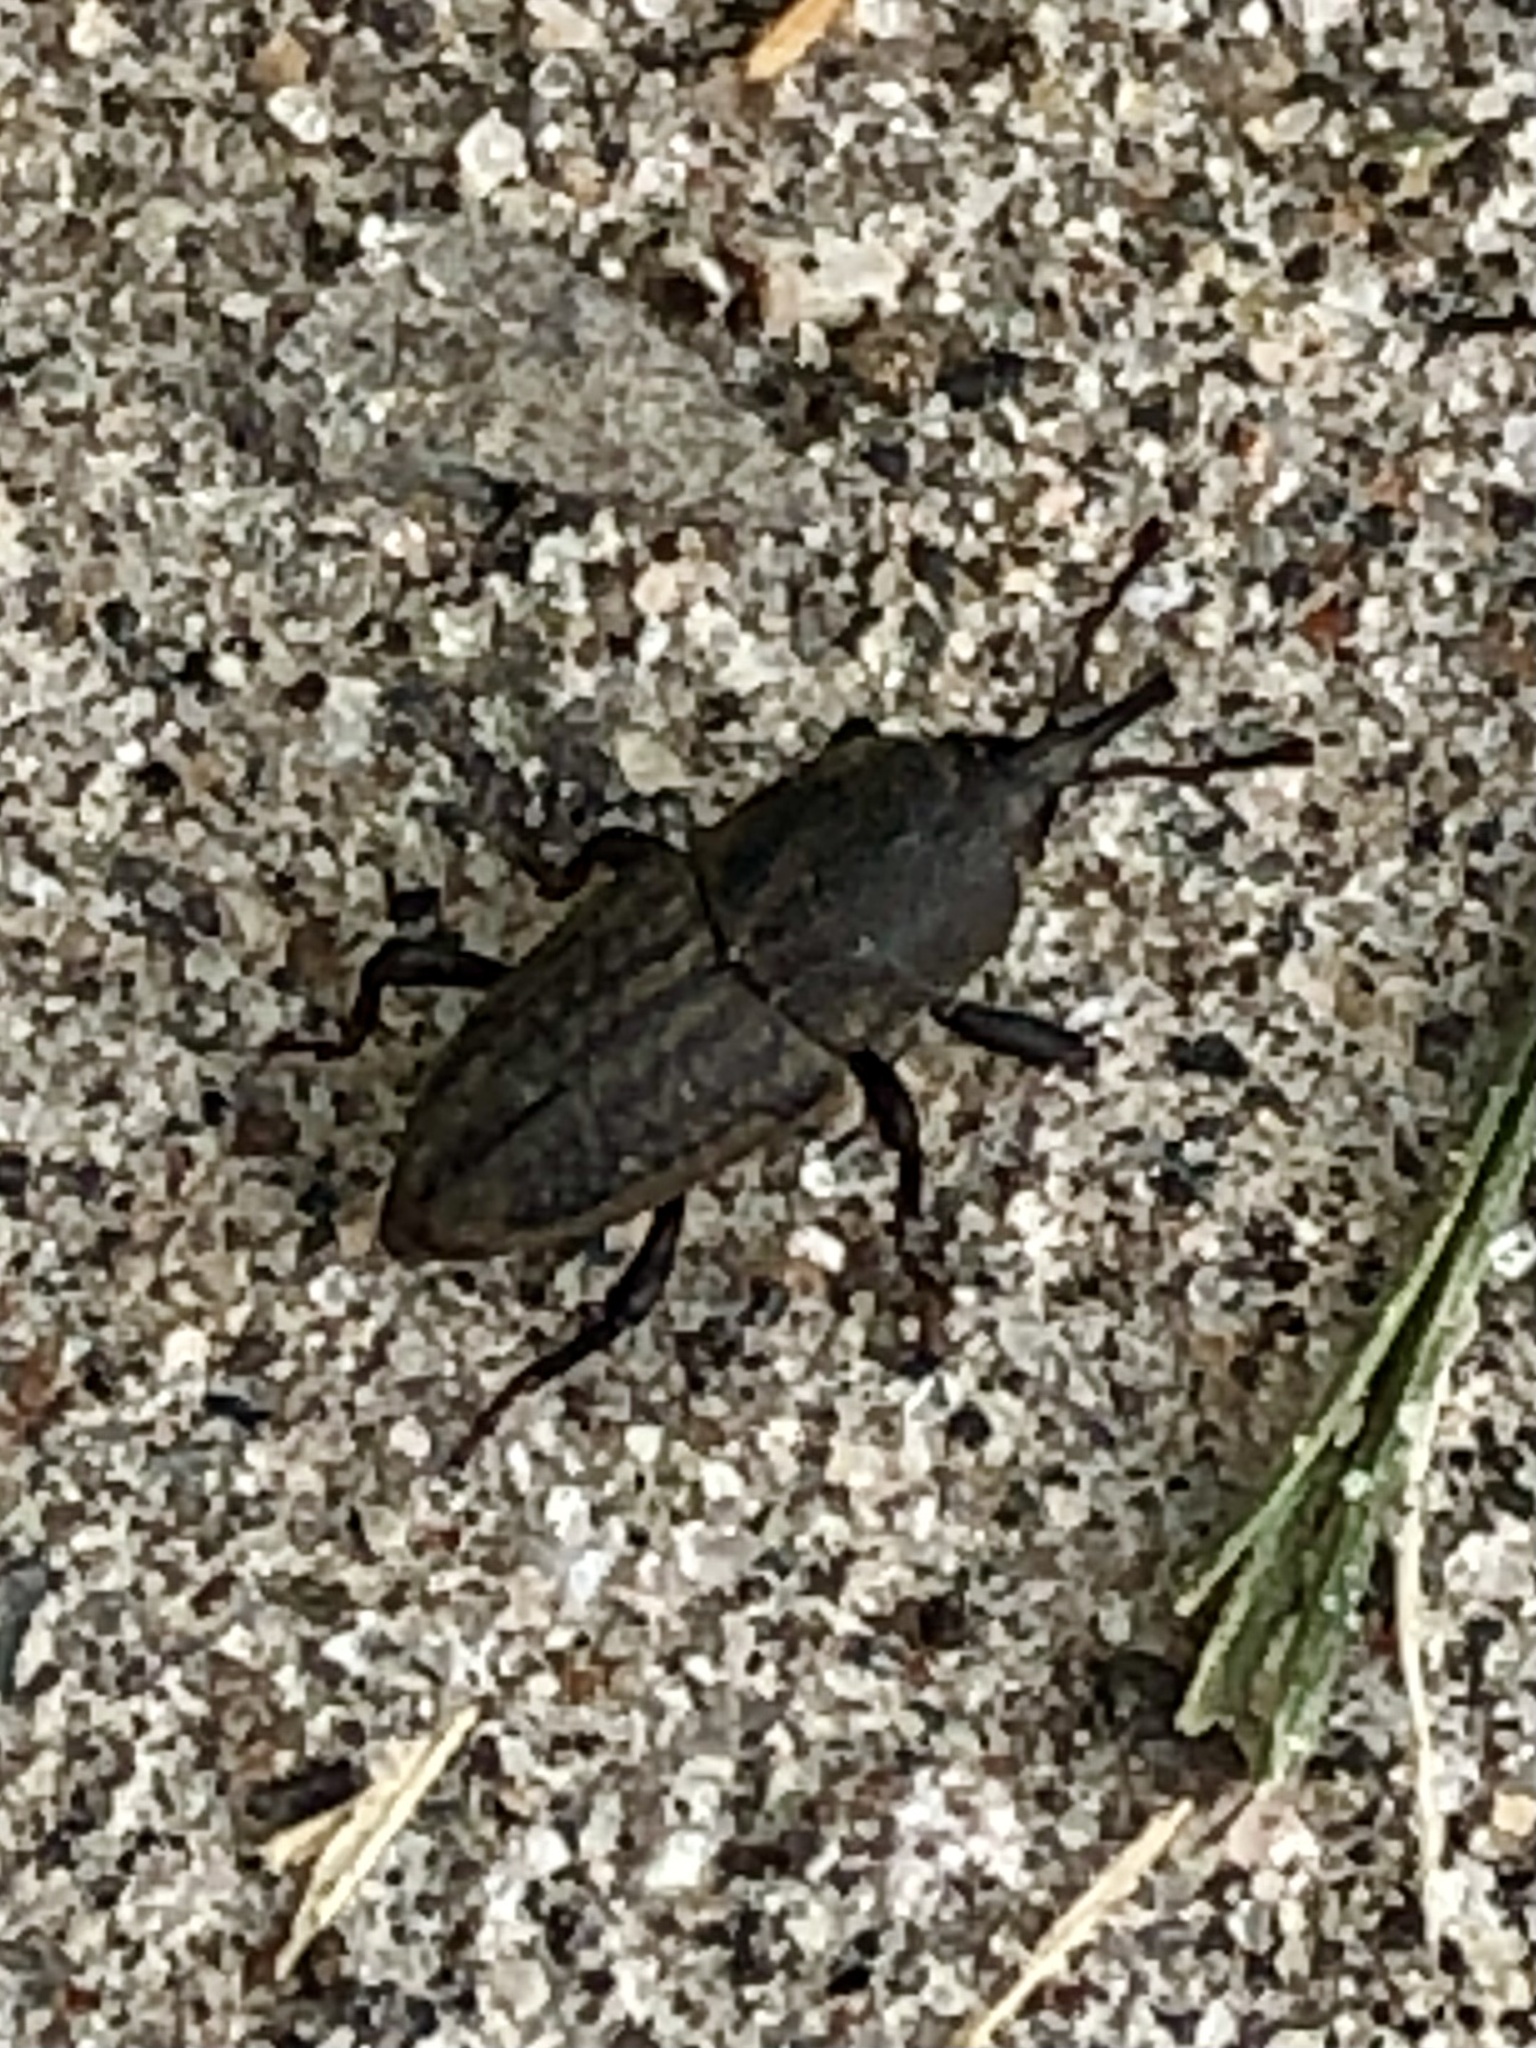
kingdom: Animalia
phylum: Arthropoda
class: Insecta
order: Coleoptera
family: Dryophthoridae
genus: Sphenophorus
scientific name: Sphenophorus interstitialis
